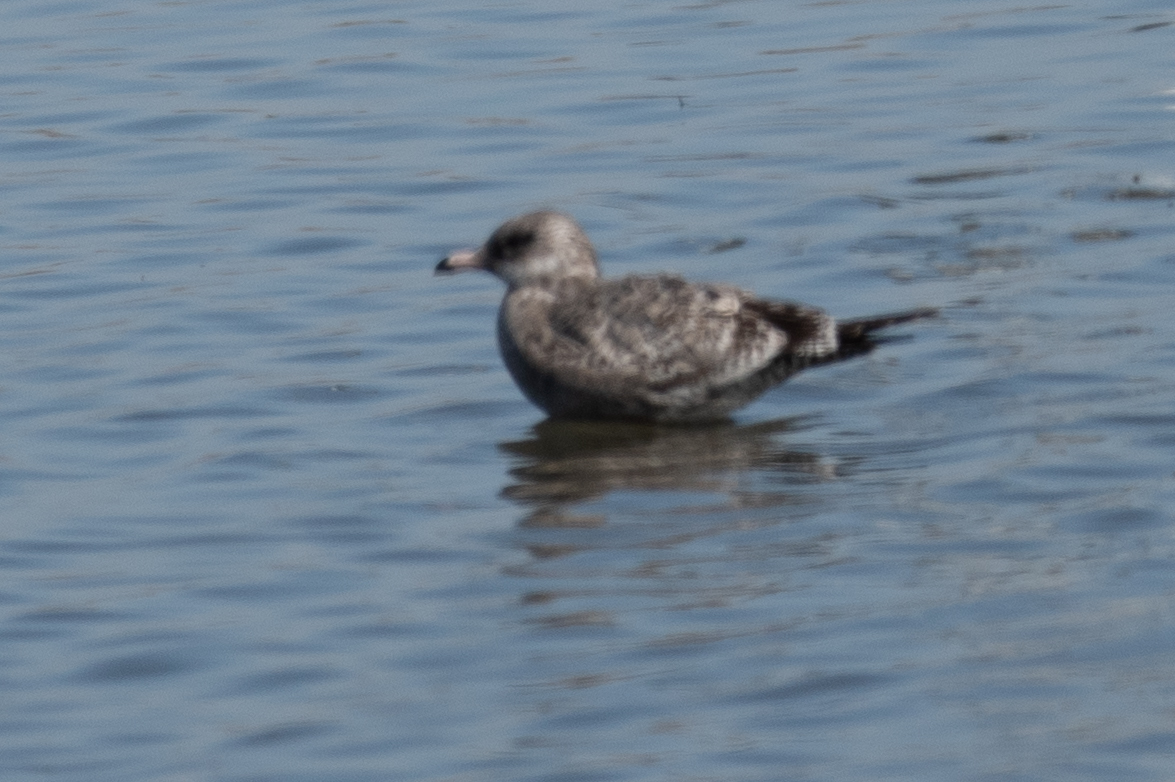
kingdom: Animalia
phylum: Chordata
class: Aves
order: Charadriiformes
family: Laridae
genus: Larus
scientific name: Larus californicus
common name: California gull
